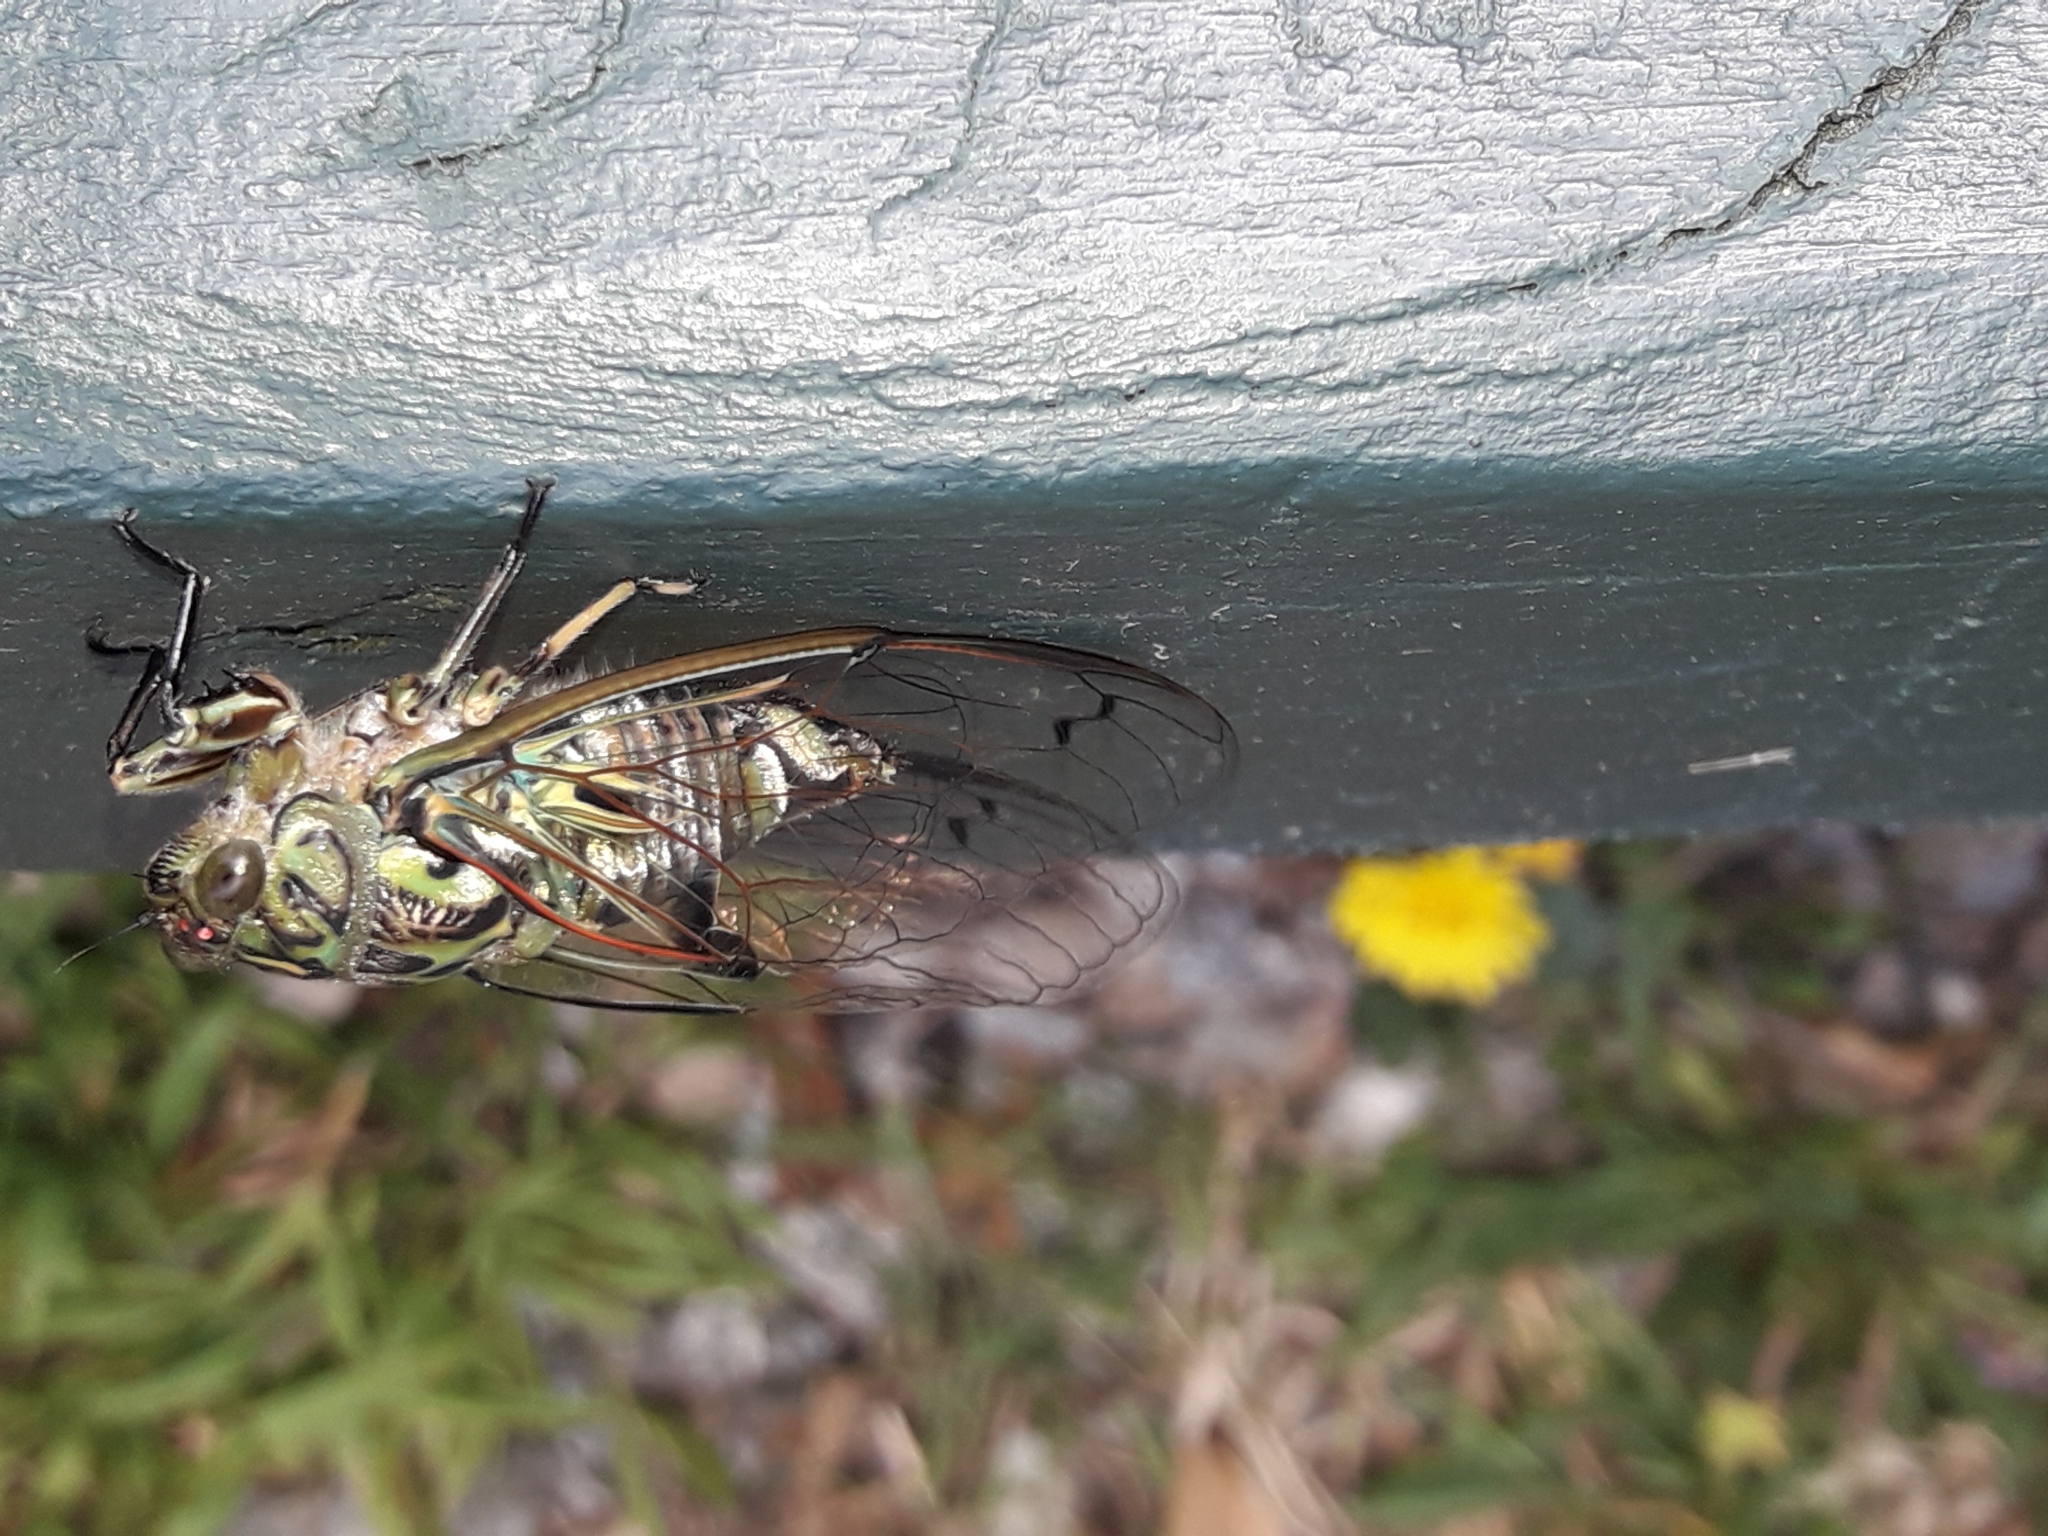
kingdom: Animalia
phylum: Arthropoda
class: Insecta
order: Hemiptera
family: Cicadidae
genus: Amphipsalta
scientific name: Amphipsalta zelandica
